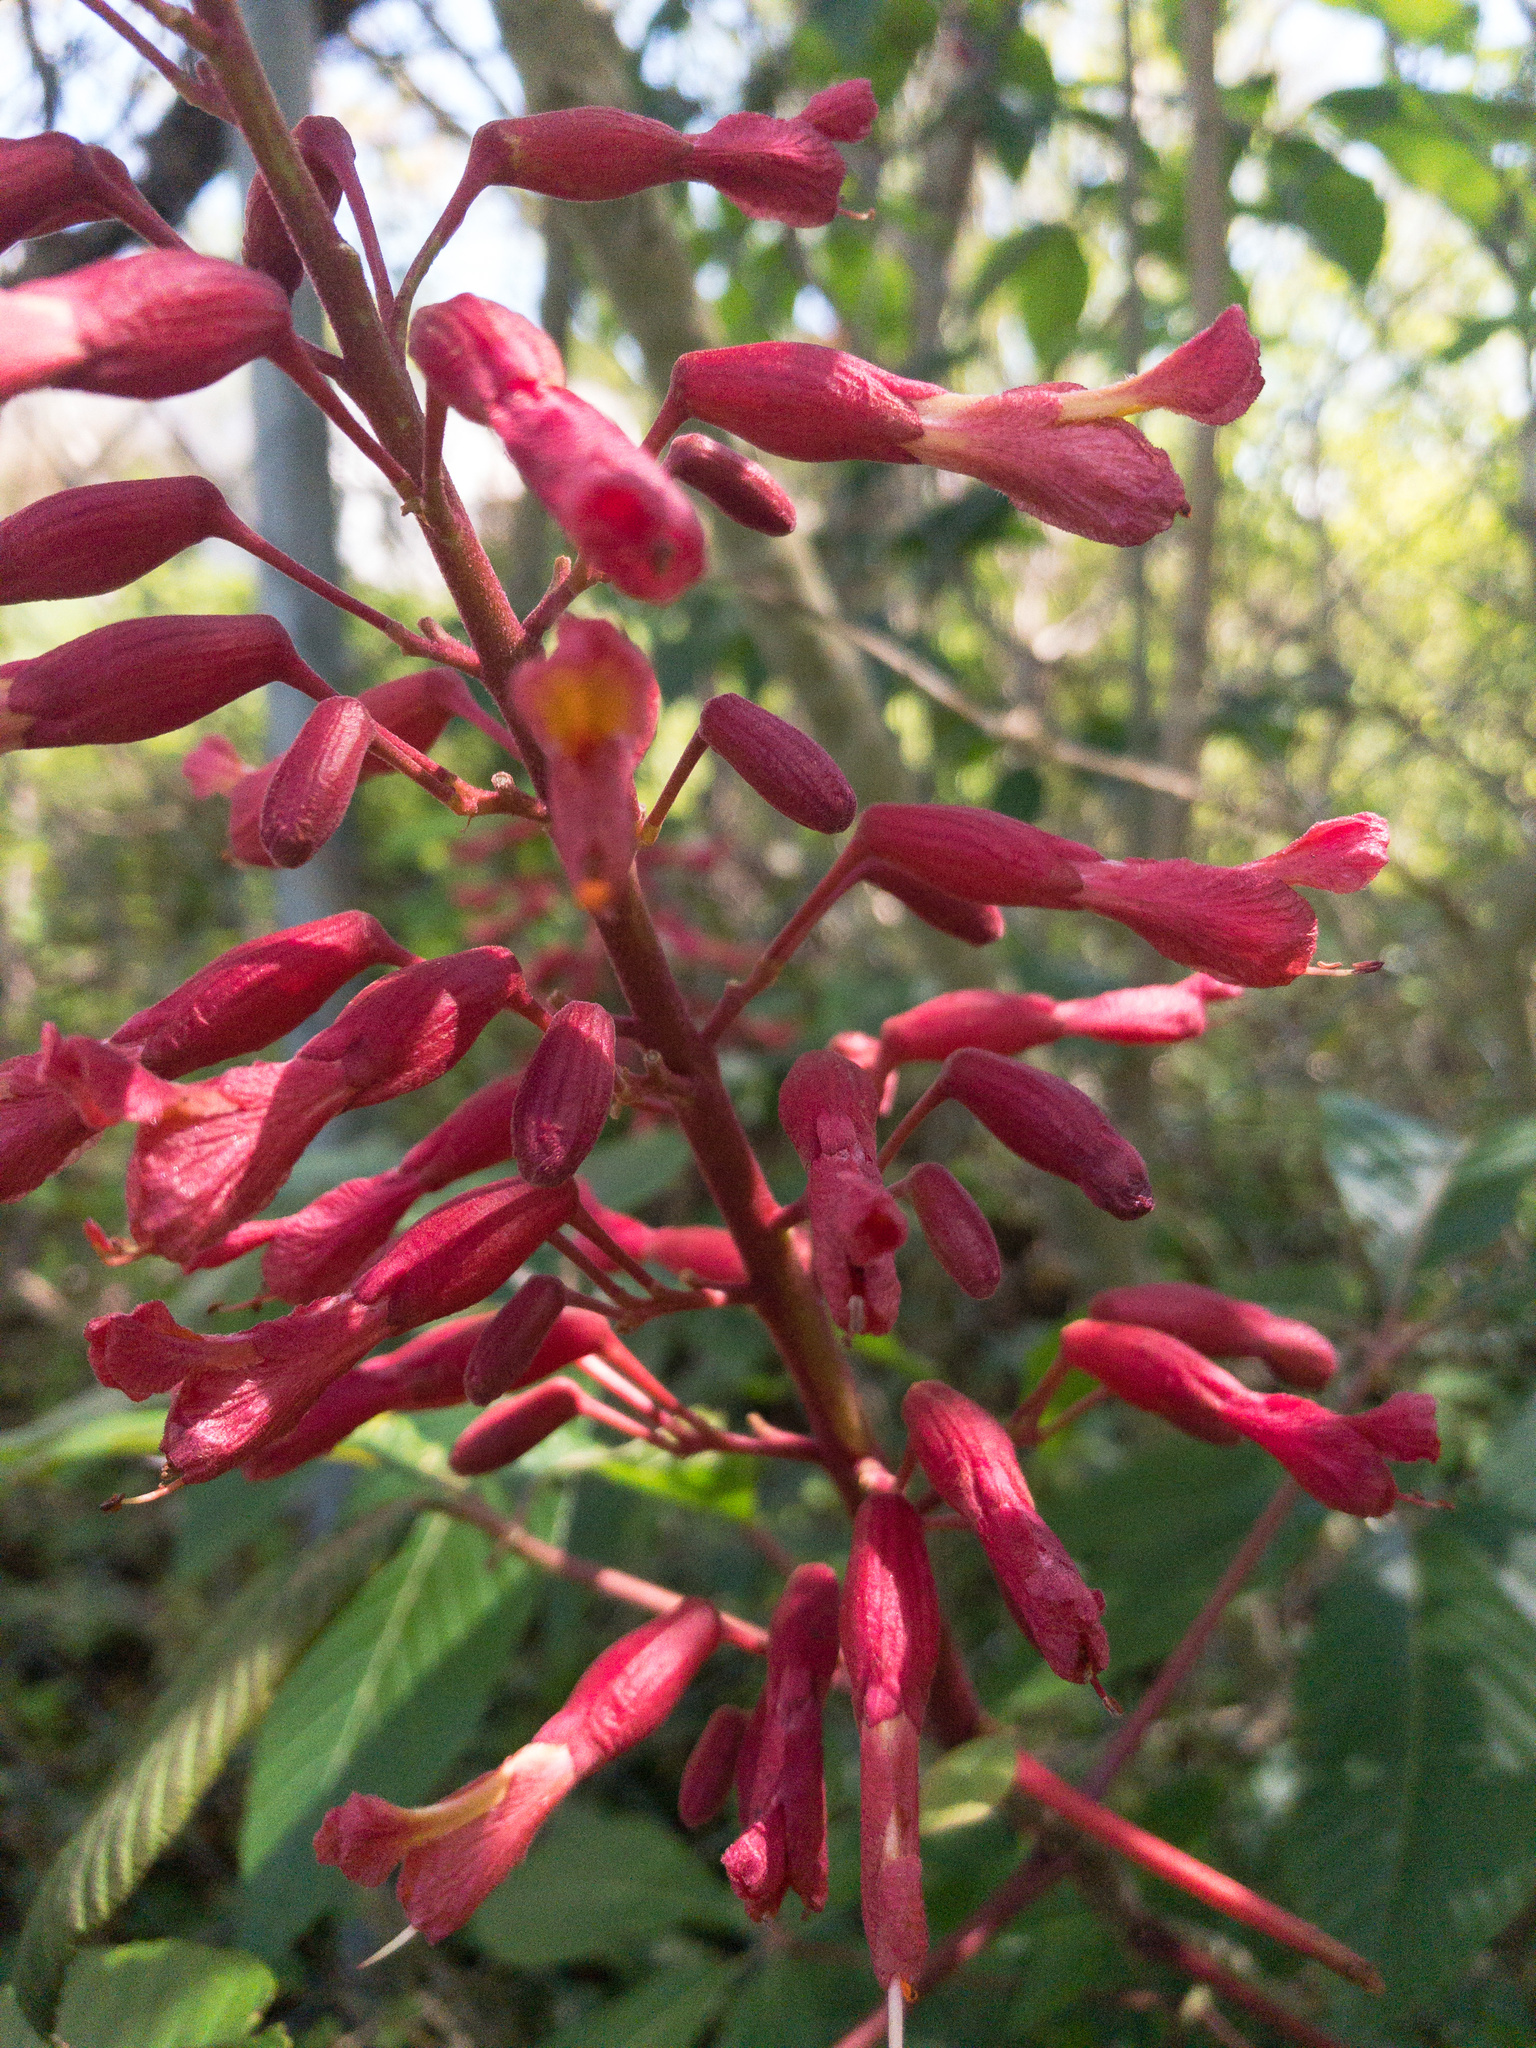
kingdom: Plantae
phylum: Tracheophyta
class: Magnoliopsida
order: Sapindales
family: Sapindaceae
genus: Aesculus
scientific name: Aesculus pavia
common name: Red buckeye
